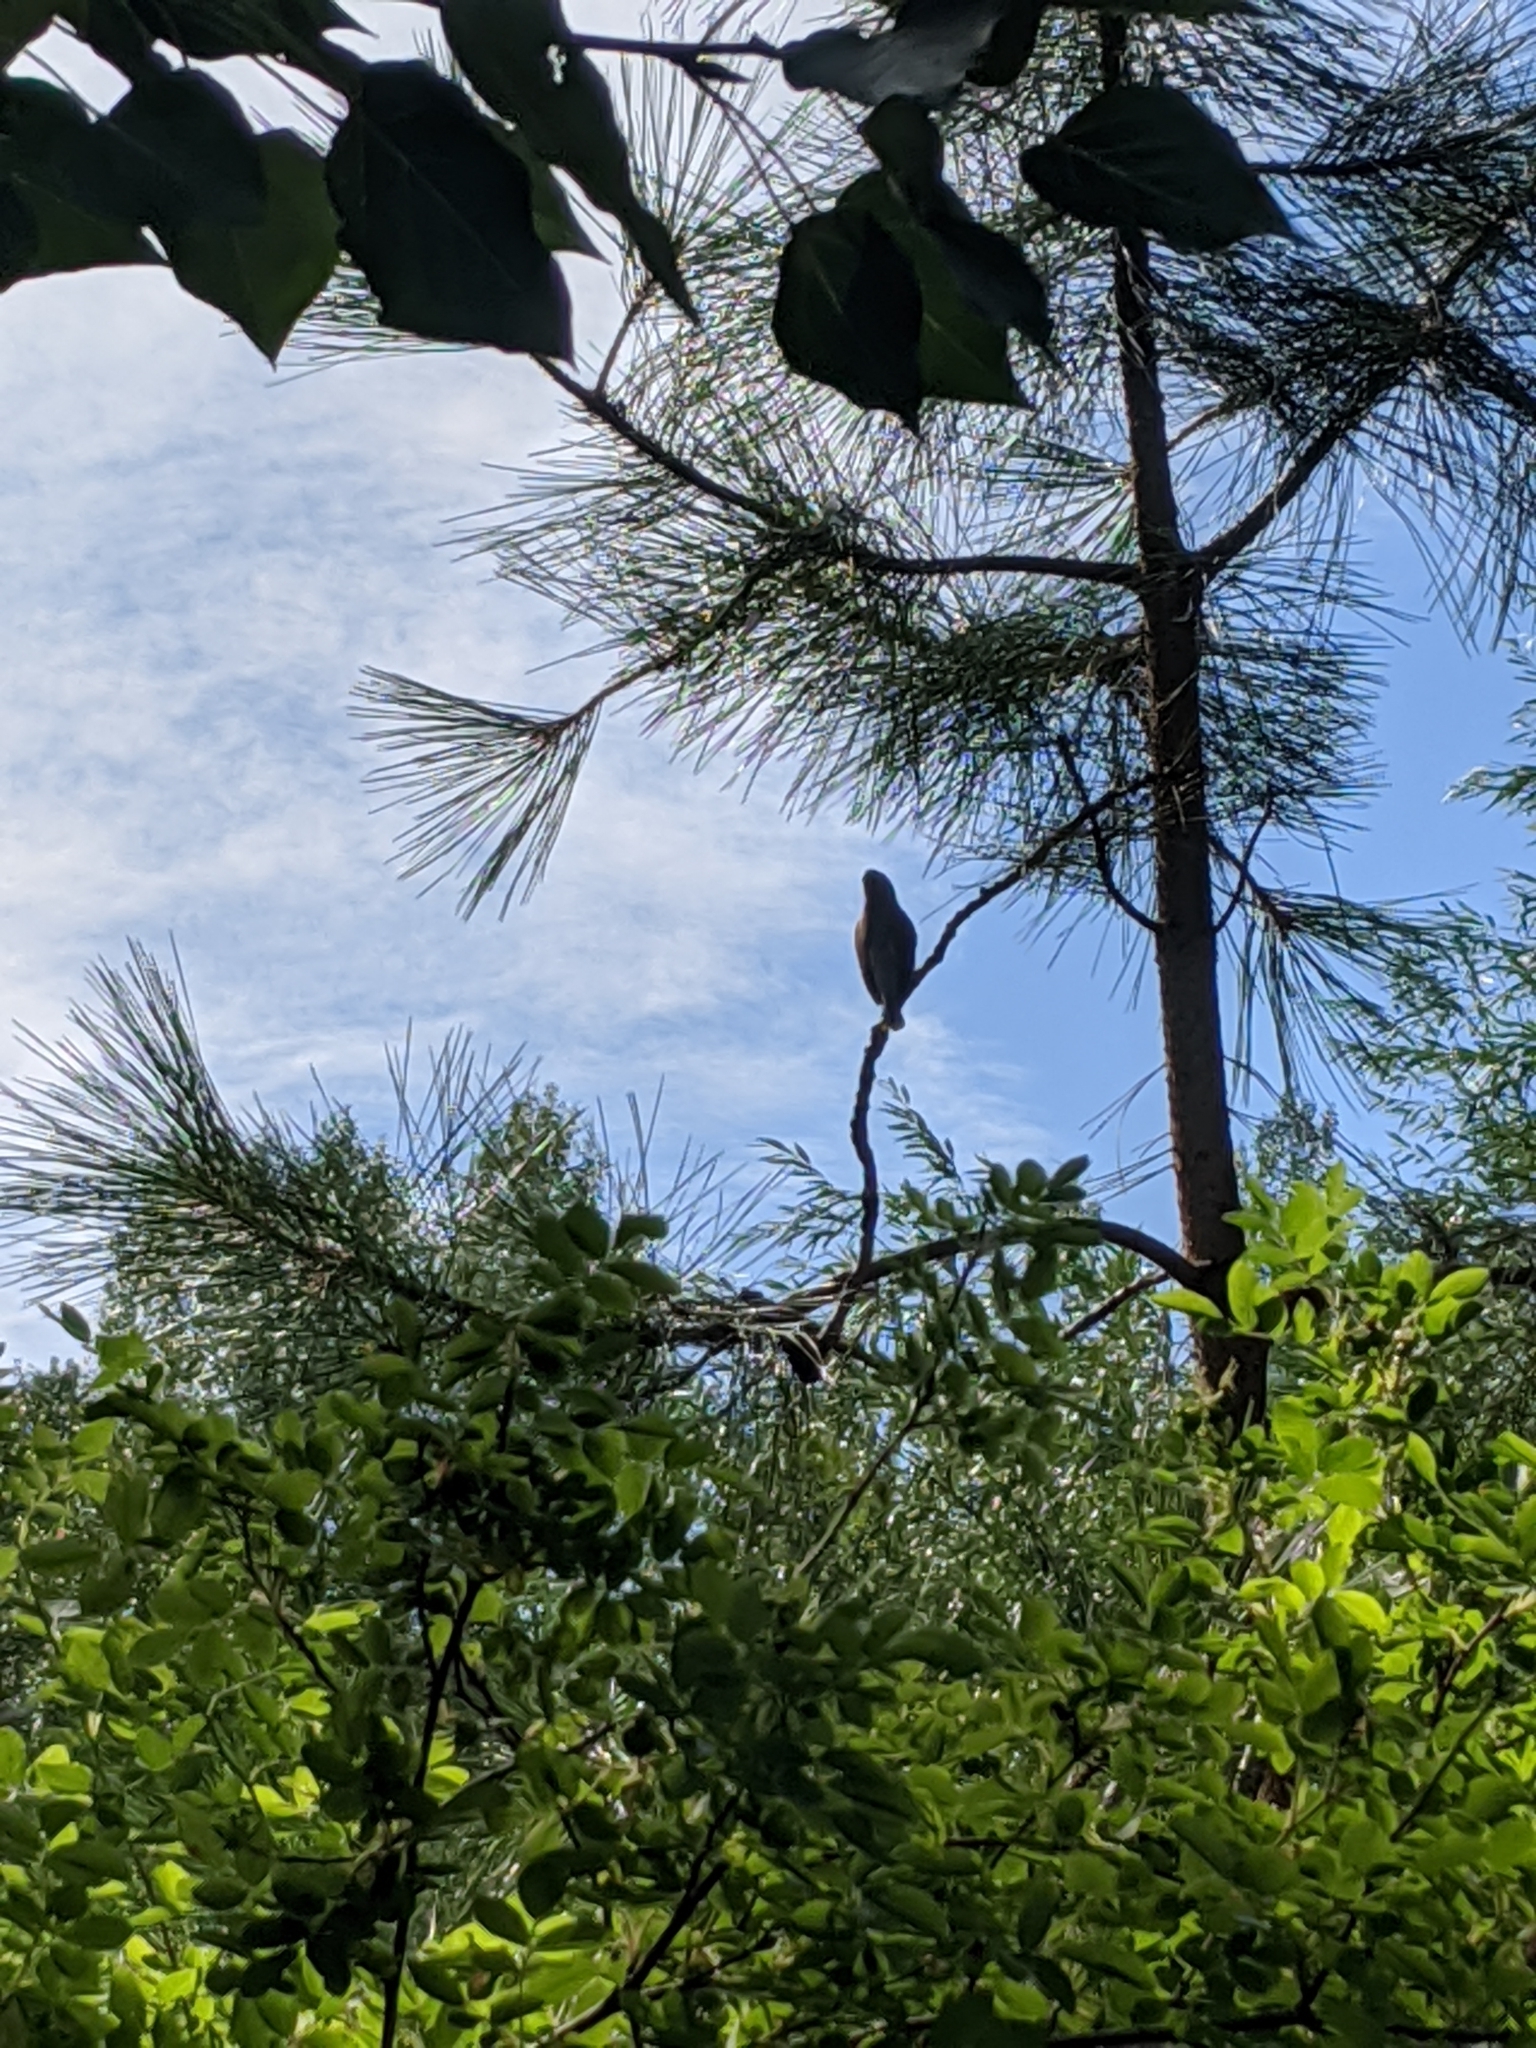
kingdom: Animalia
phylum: Chordata
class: Aves
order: Passeriformes
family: Bombycillidae
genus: Bombycilla
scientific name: Bombycilla cedrorum
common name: Cedar waxwing
